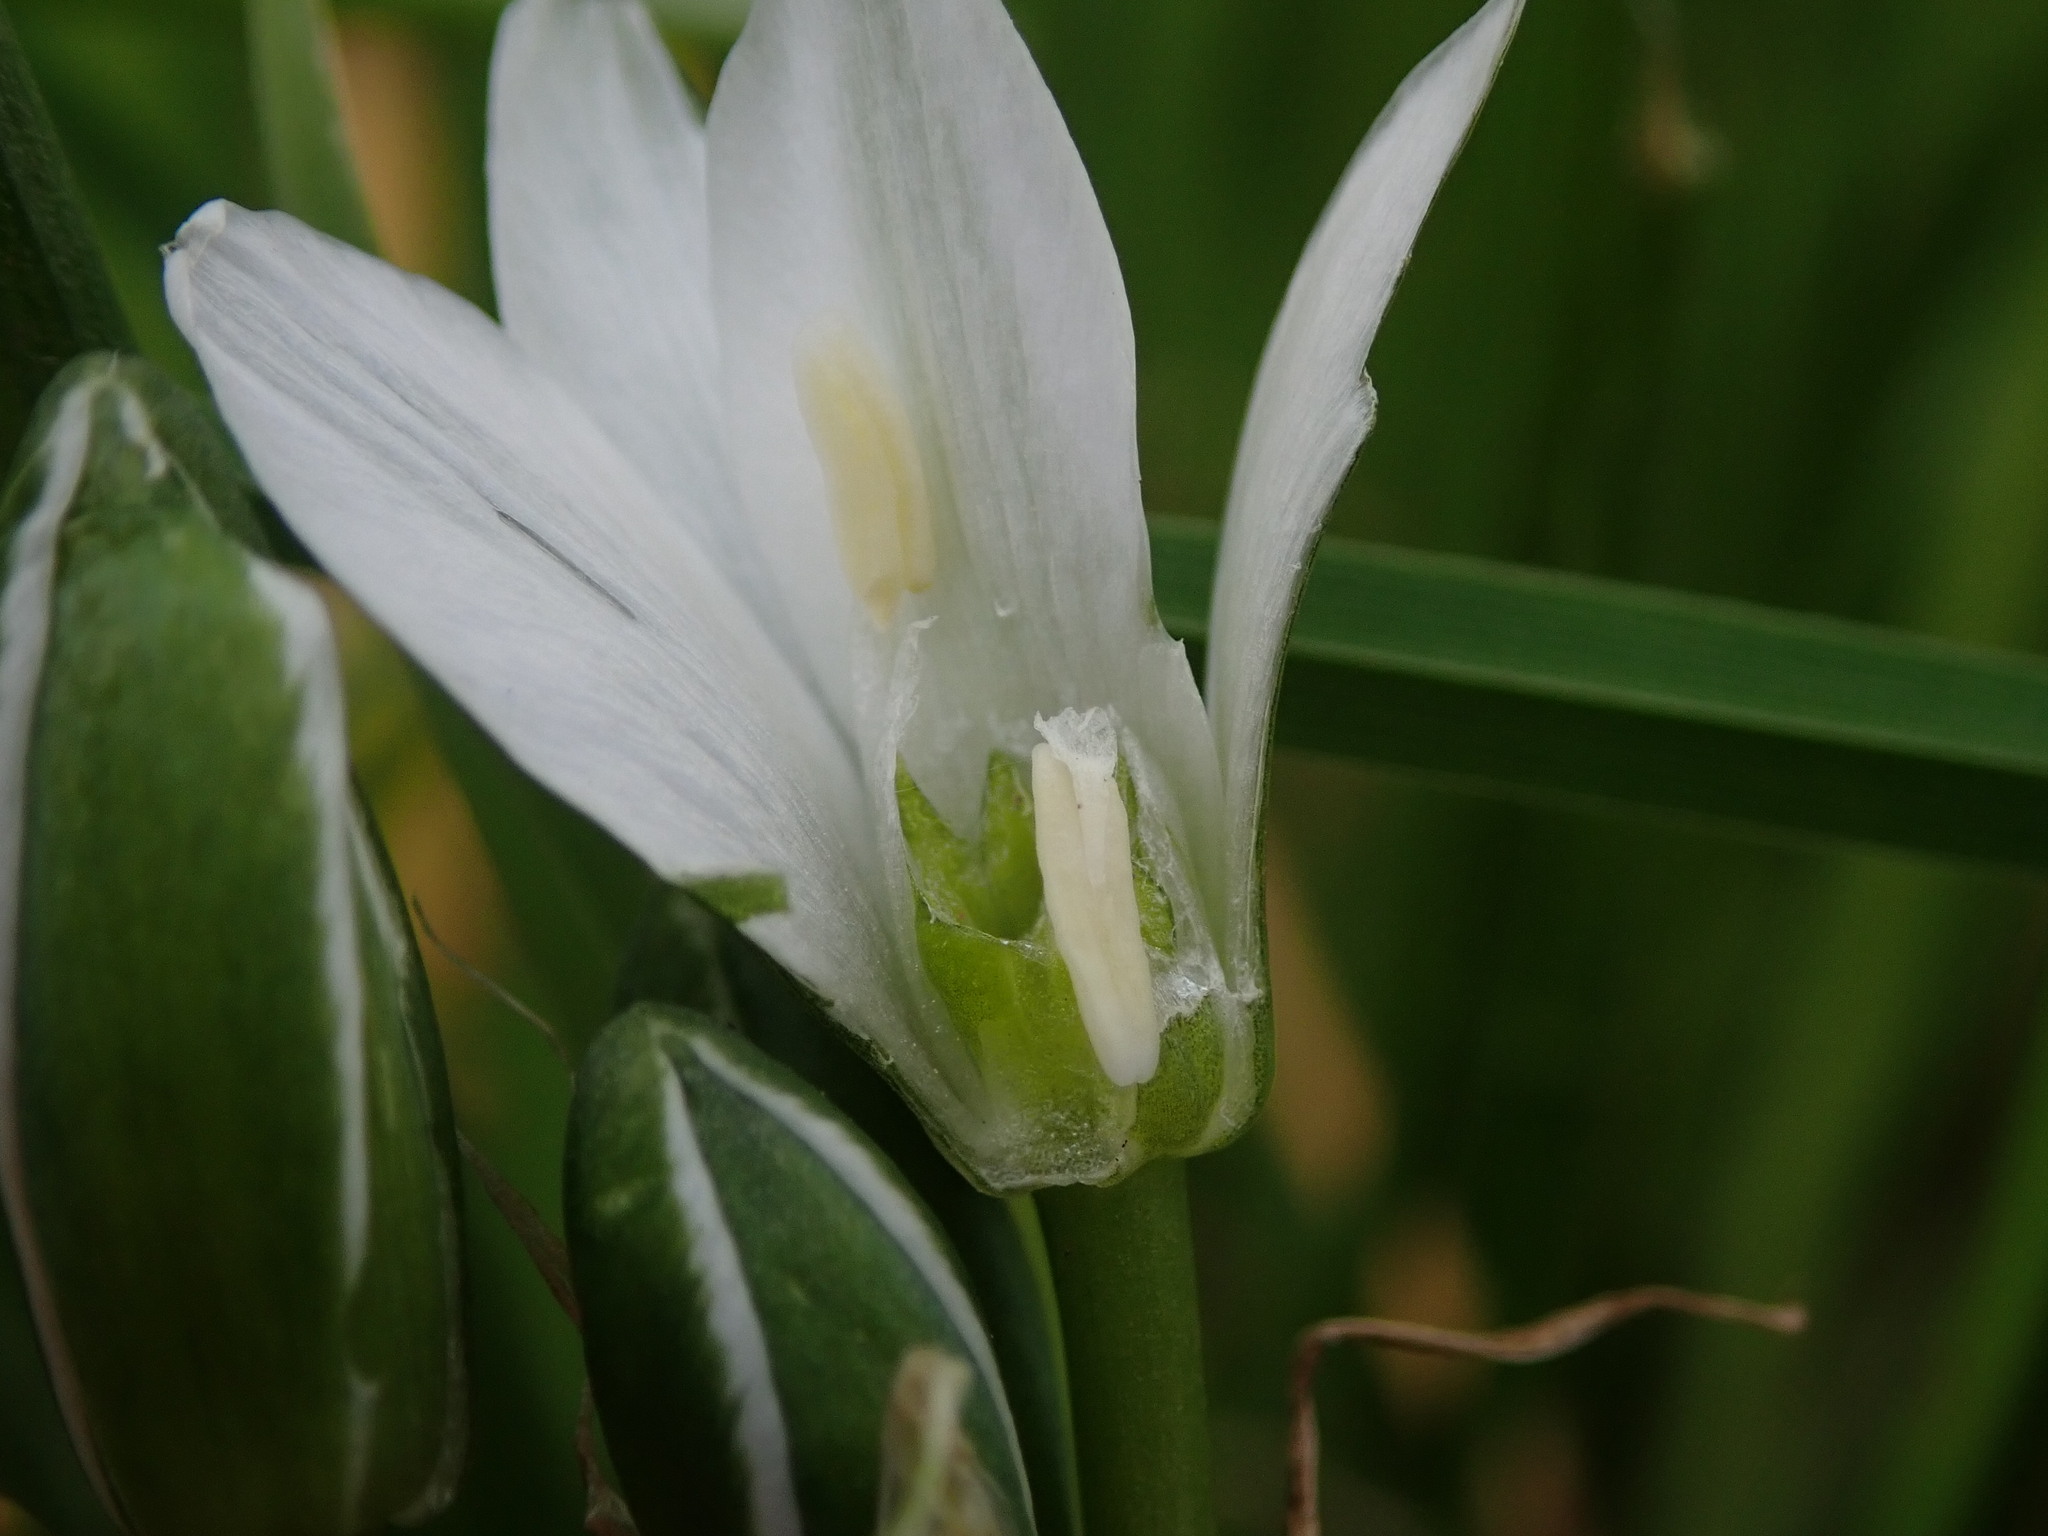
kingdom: Plantae
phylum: Tracheophyta
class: Liliopsida
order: Asparagales
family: Asparagaceae
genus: Ornithogalum
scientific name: Ornithogalum umbellatum
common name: Garden star-of-bethlehem
